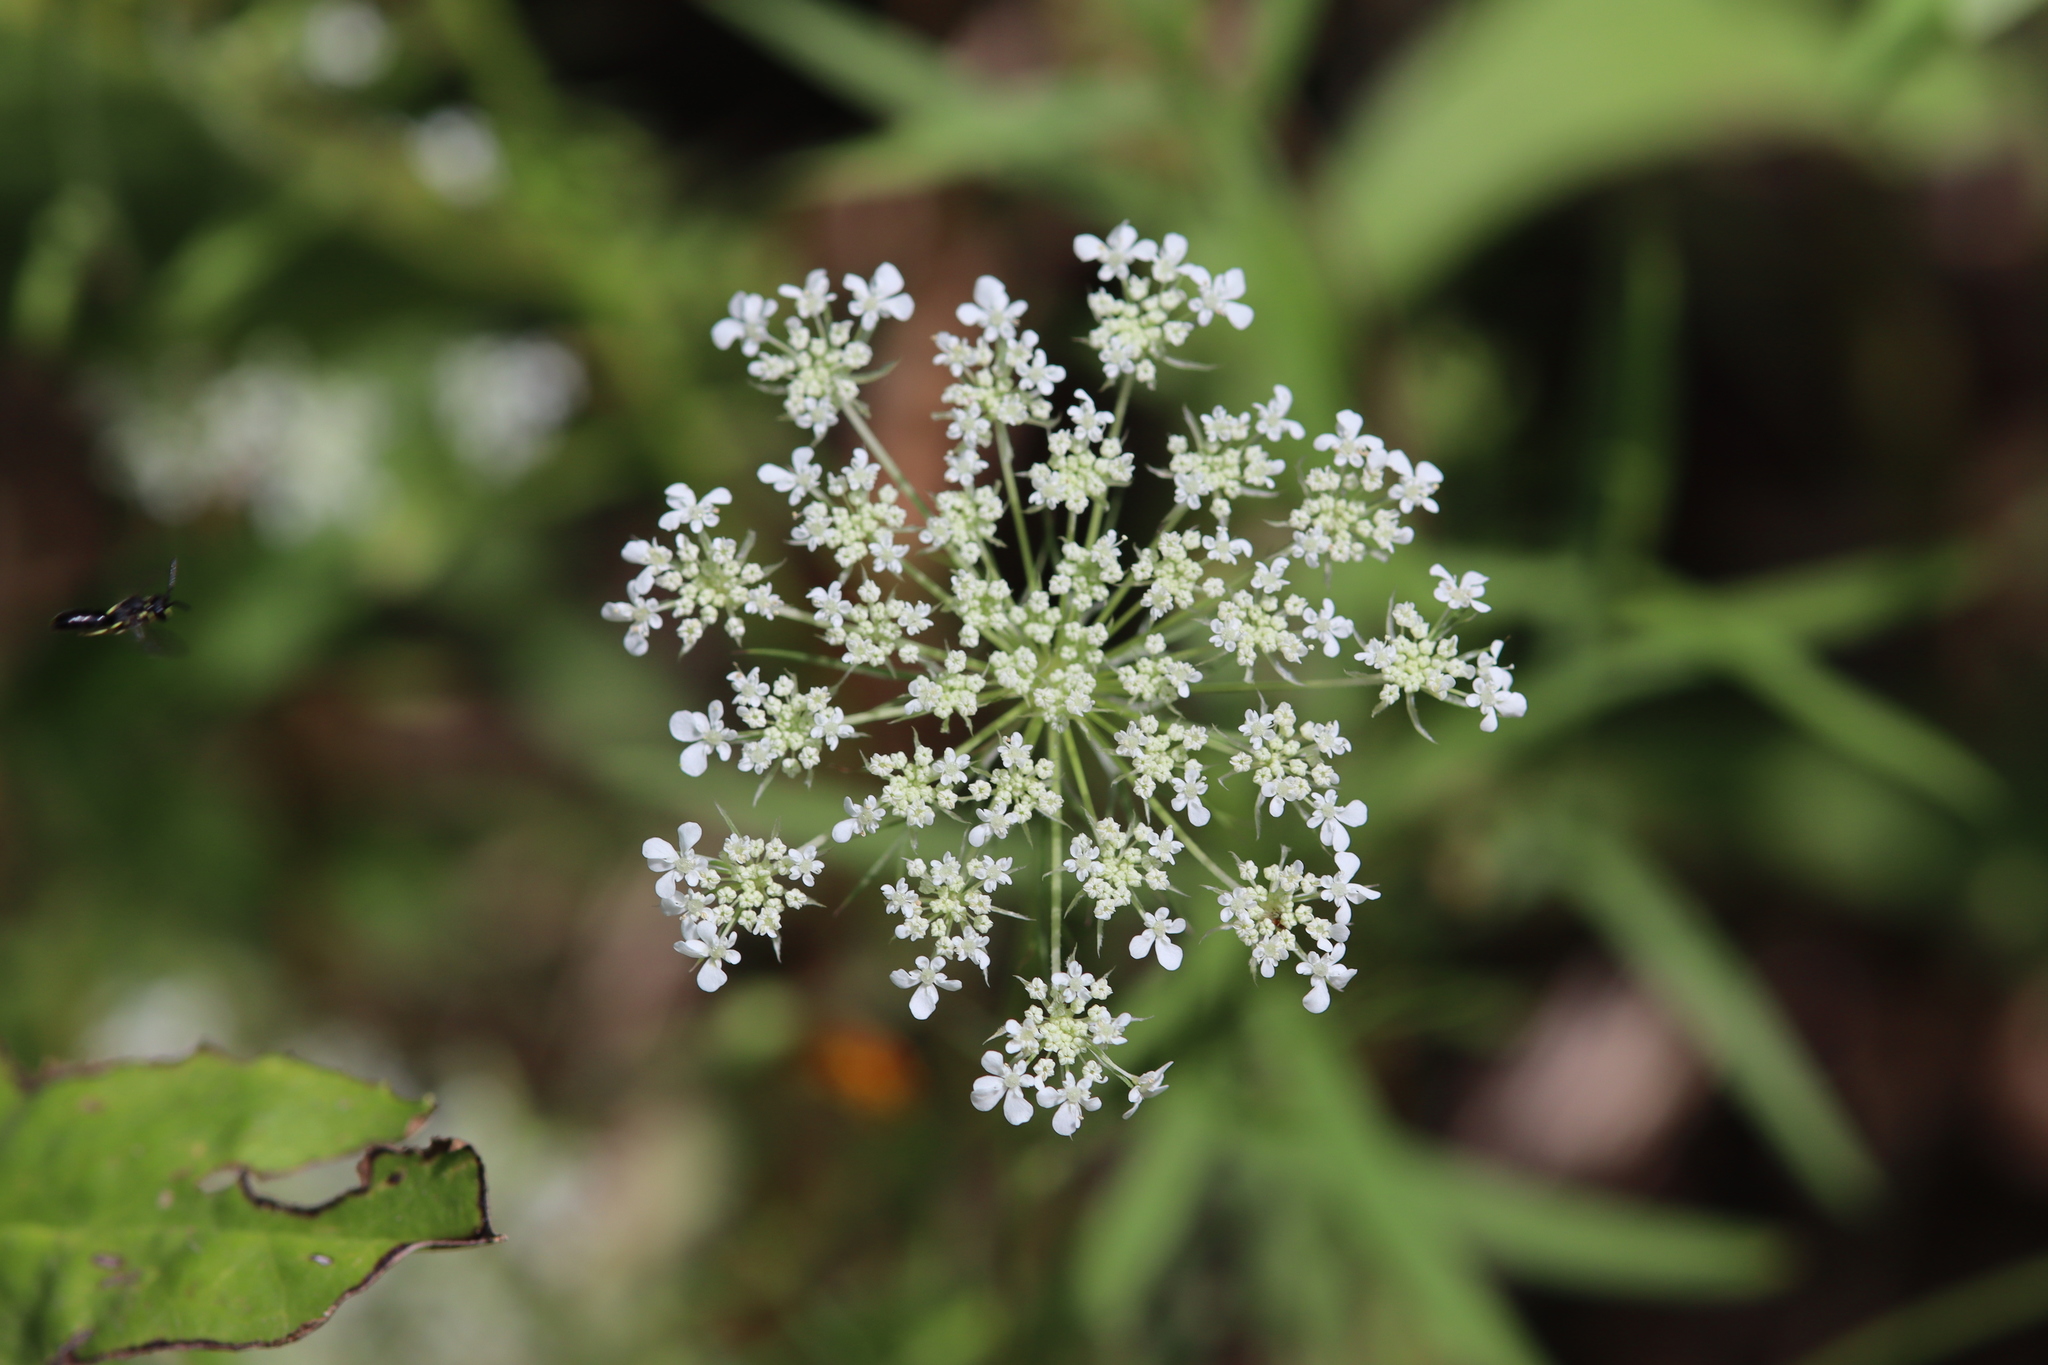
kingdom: Plantae
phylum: Tracheophyta
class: Magnoliopsida
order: Apiales
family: Apiaceae
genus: Daucus
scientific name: Daucus carota
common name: Wild carrot
